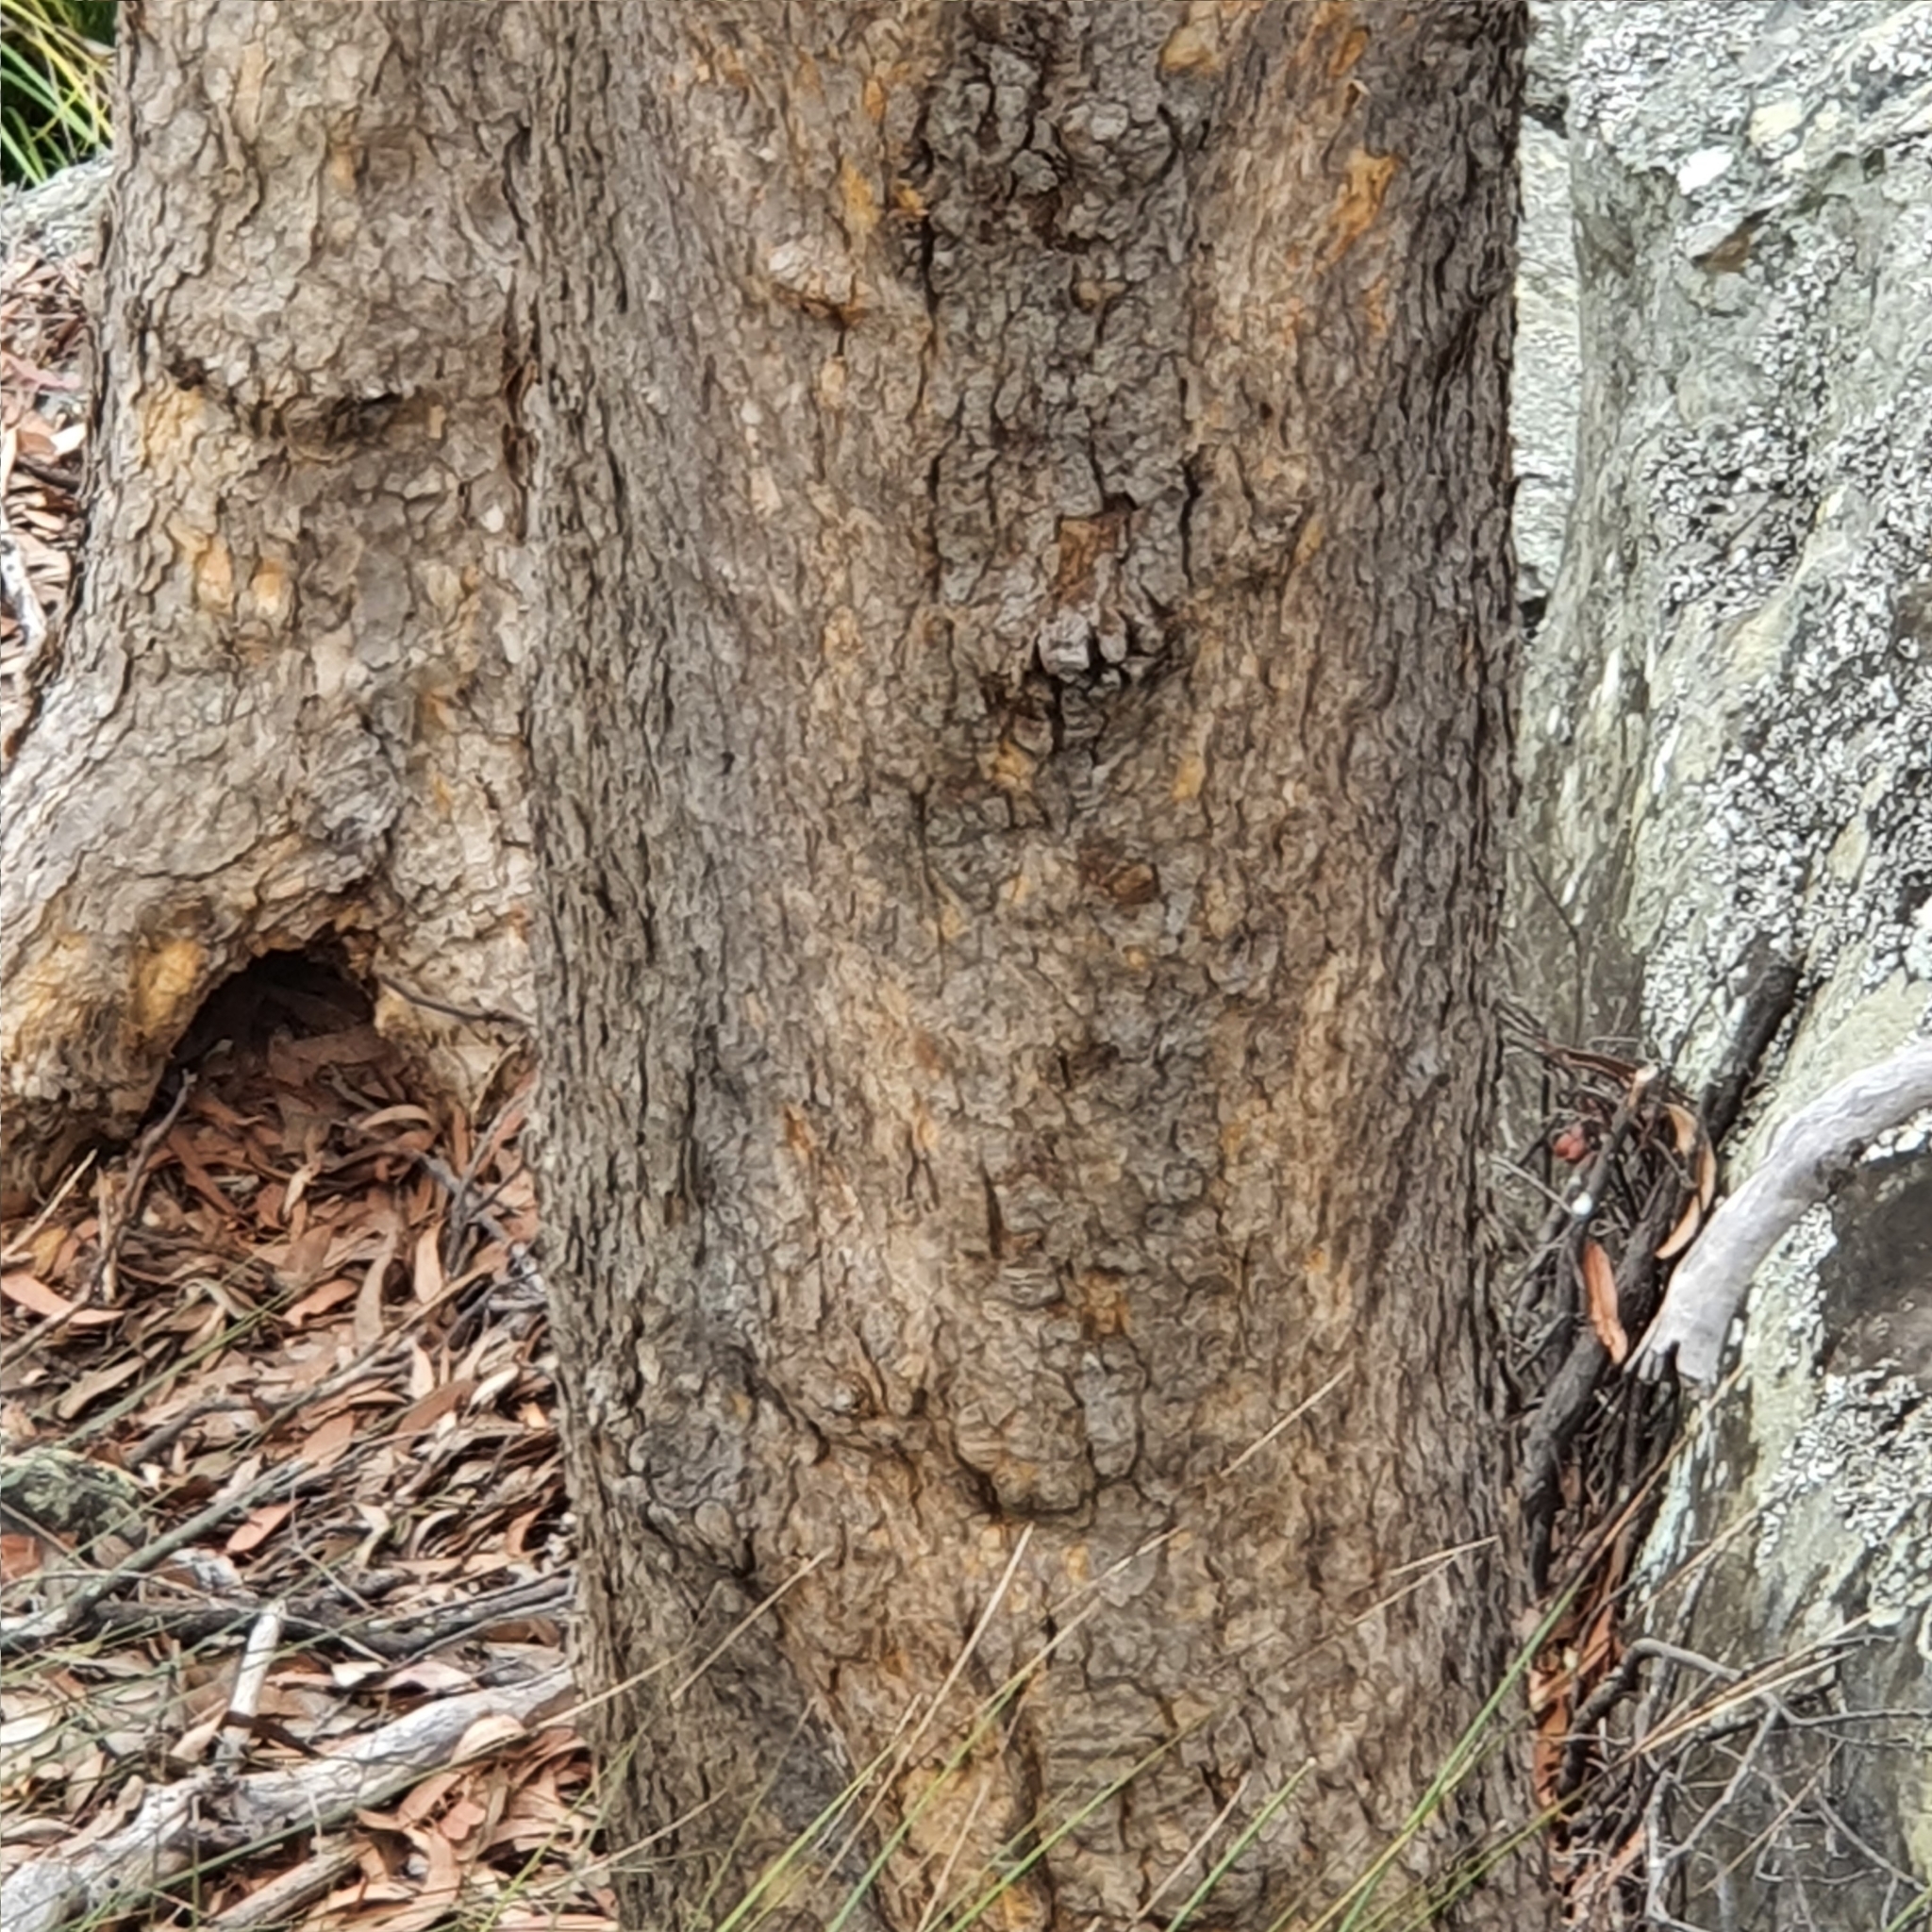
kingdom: Plantae
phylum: Tracheophyta
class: Magnoliopsida
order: Myrtales
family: Myrtaceae
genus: Corymbia
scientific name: Corymbia eximia
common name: Yellow bloodwood
